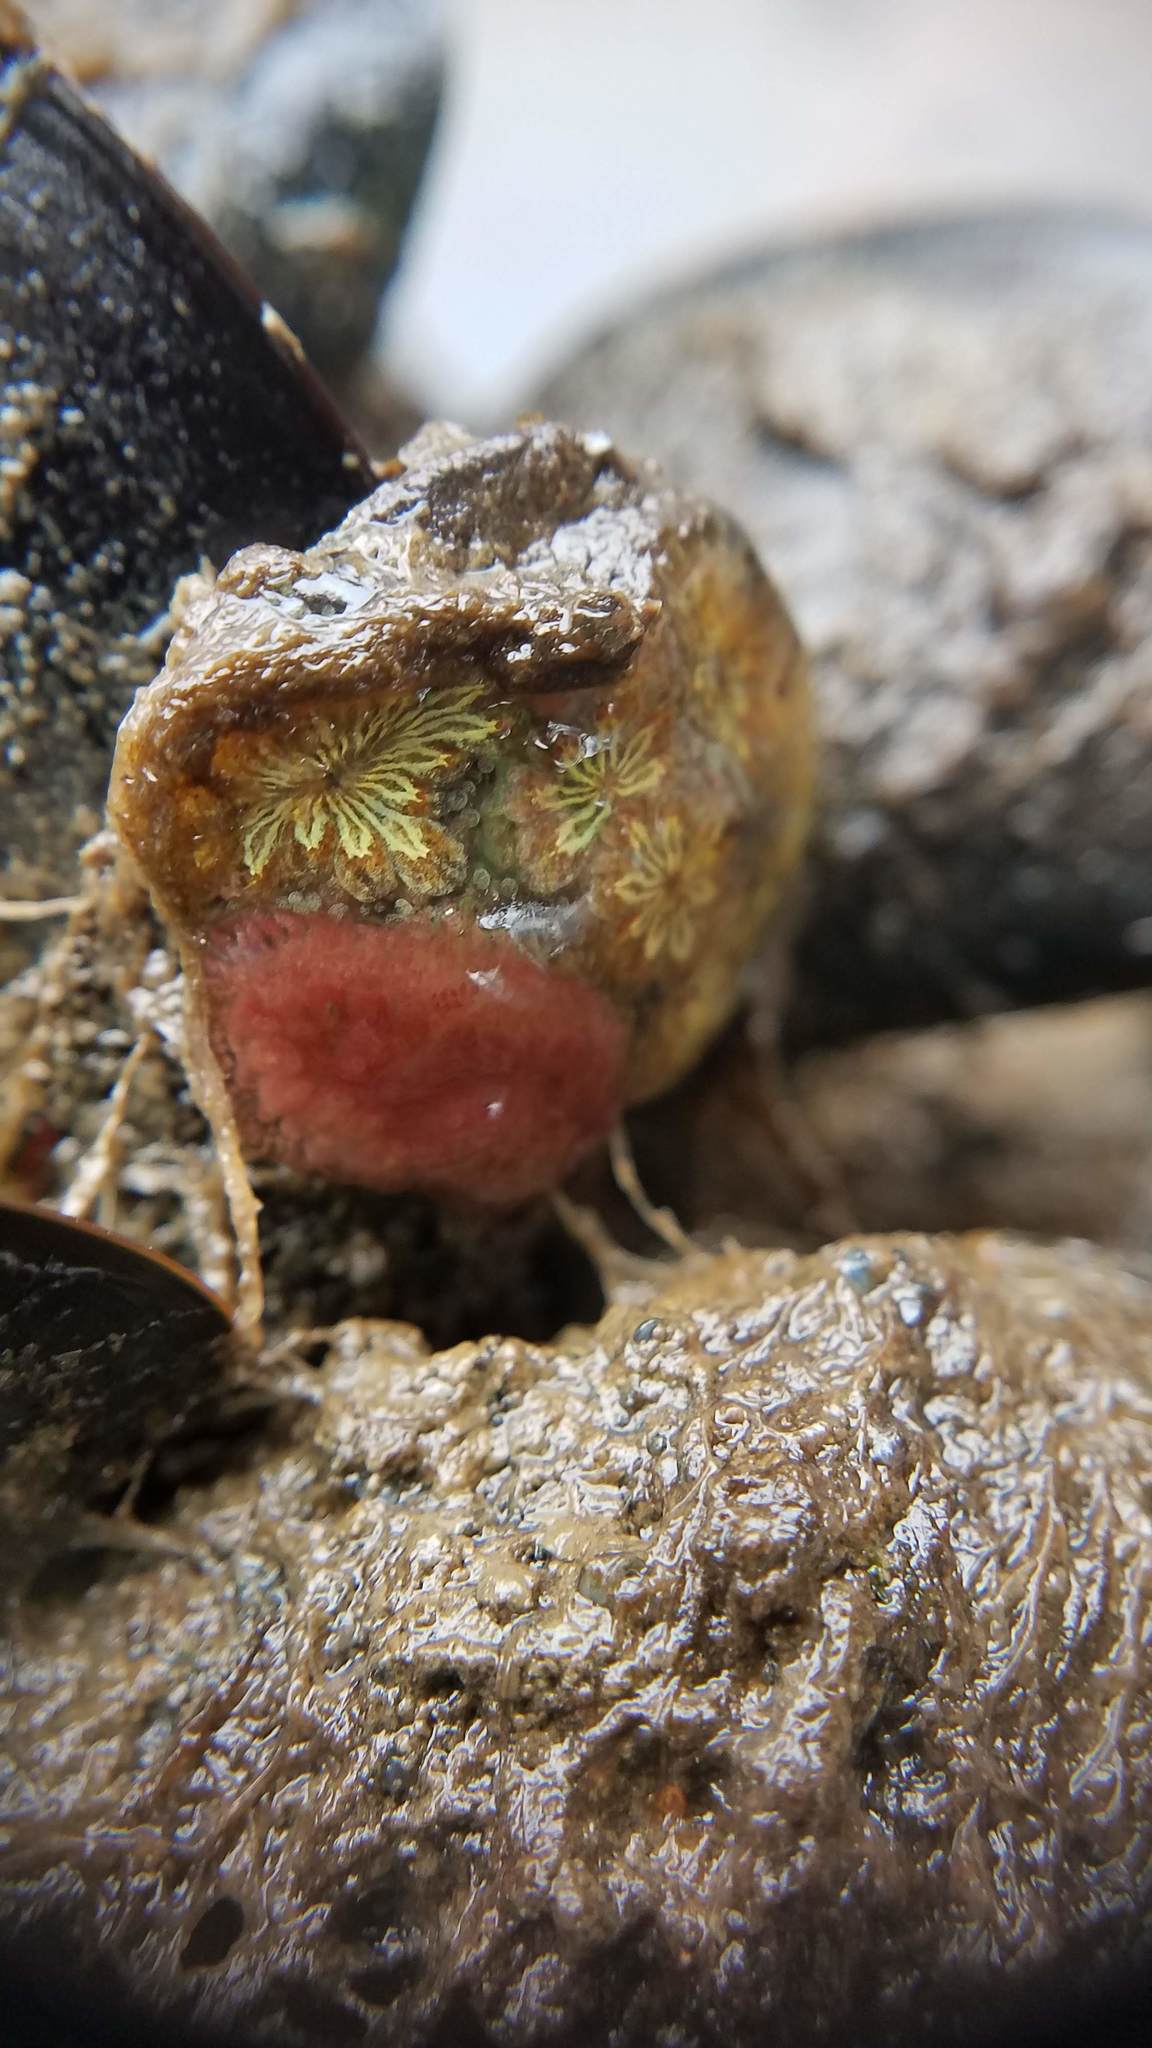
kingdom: Animalia
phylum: Chordata
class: Ascidiacea
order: Stolidobranchia
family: Styelidae
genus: Botryllus
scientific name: Botryllus schlosseri
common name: Golden star tunicate
